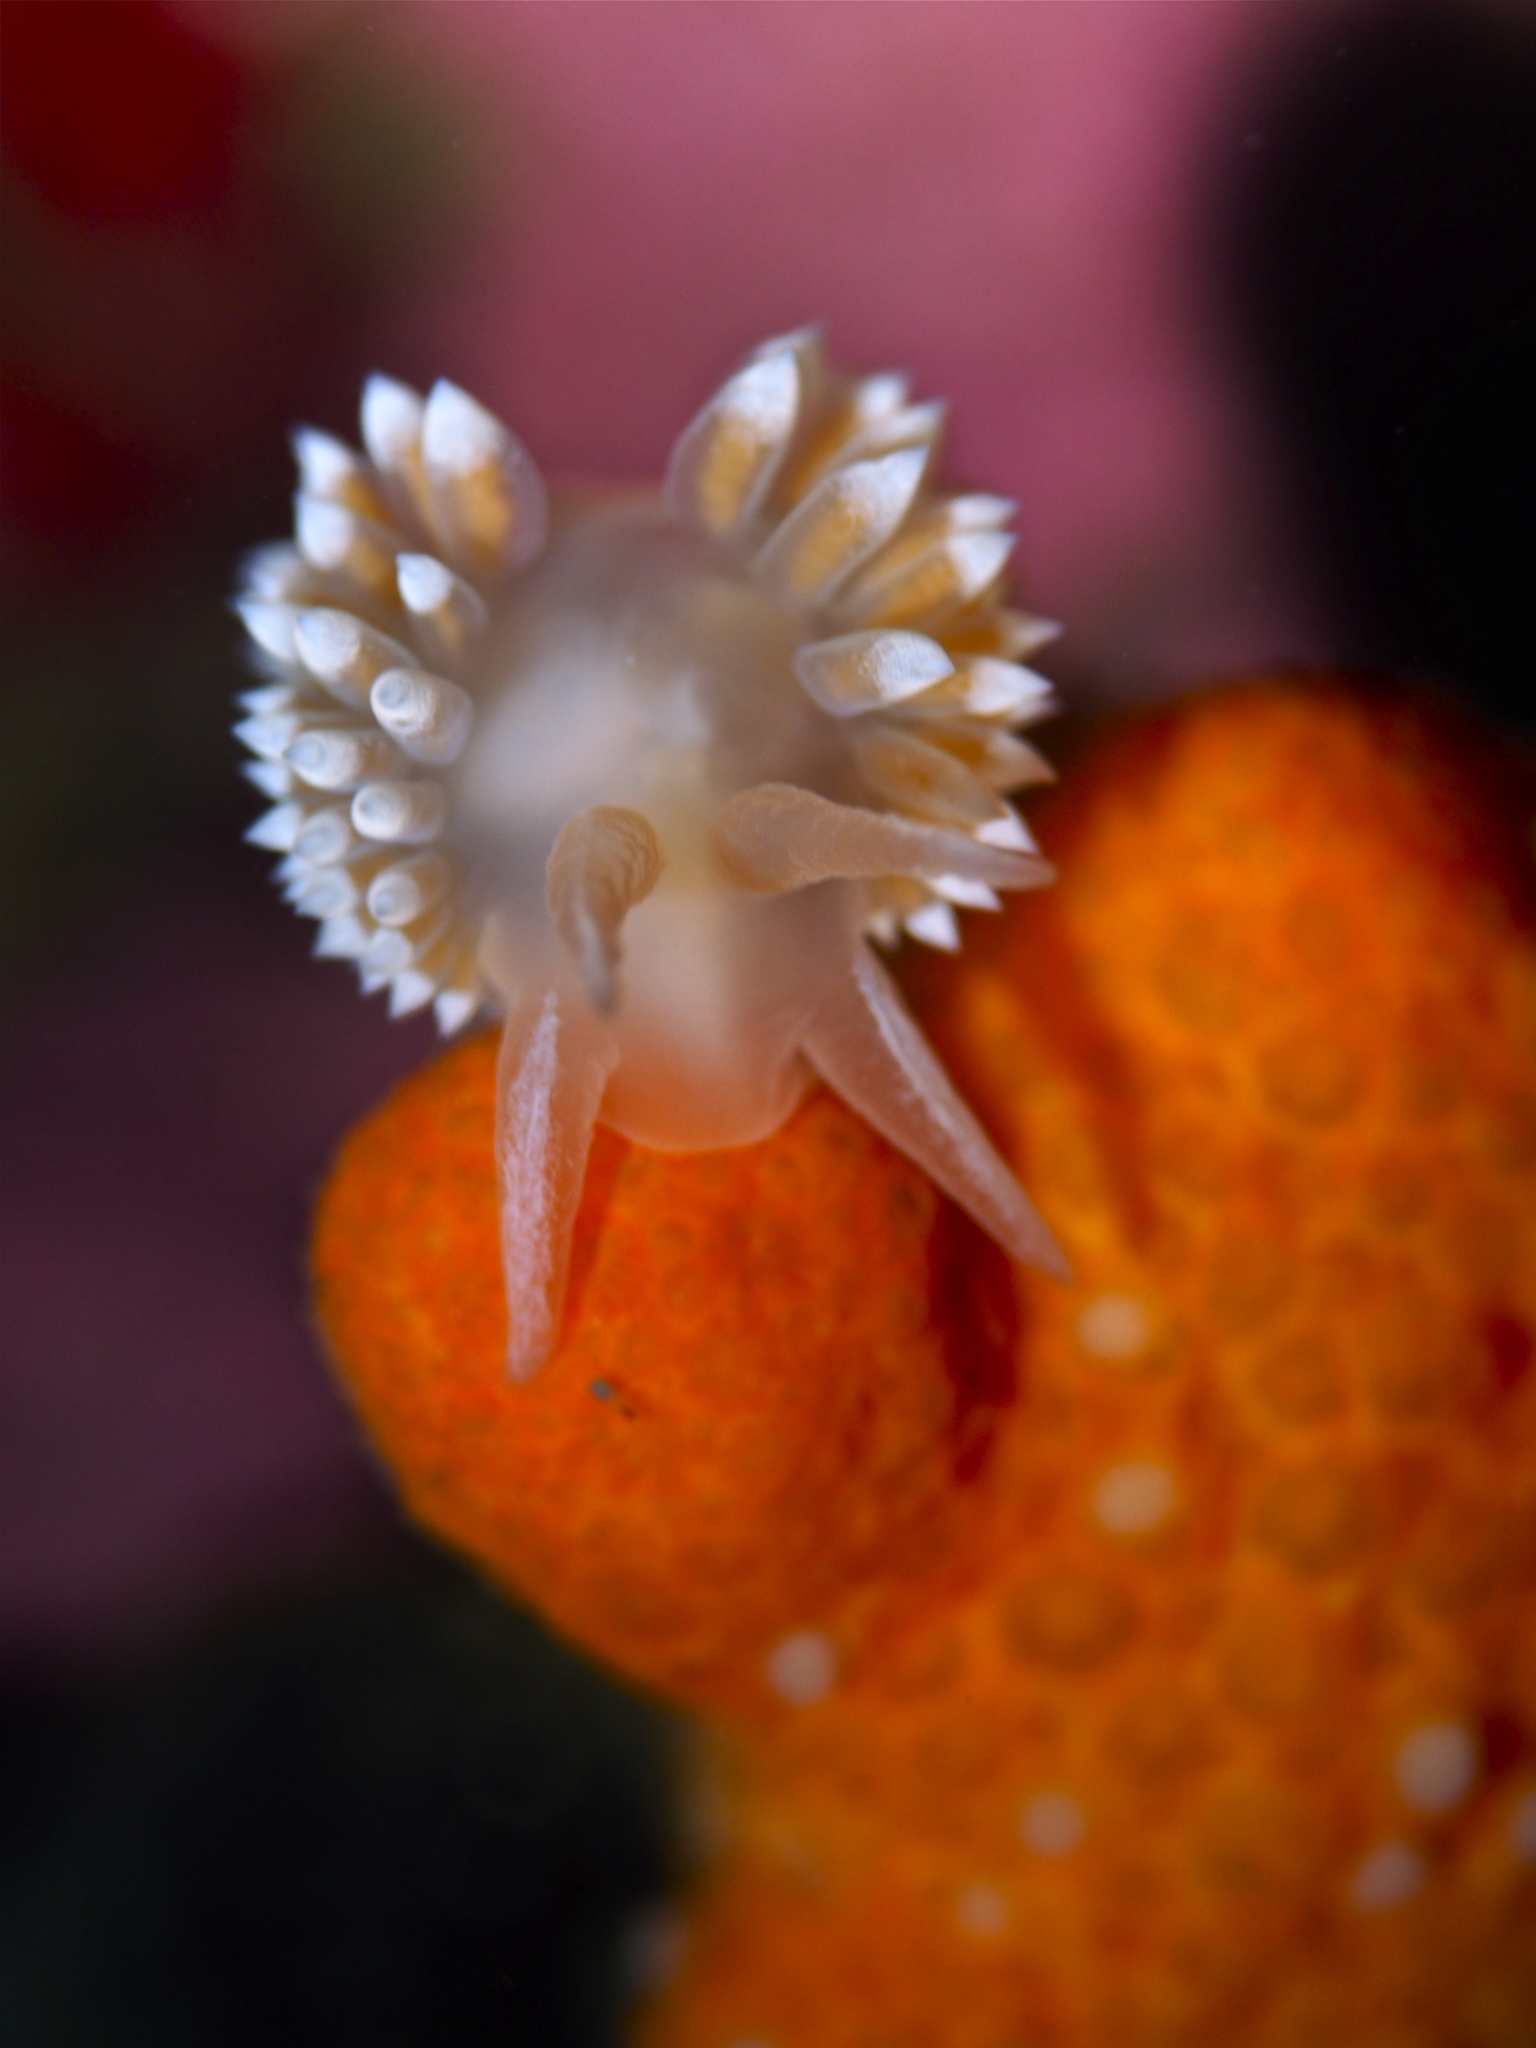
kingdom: Animalia
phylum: Mollusca
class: Gastropoda
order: Nudibranchia
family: Coryphellidae
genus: Coryphella
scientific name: Coryphella verrucosa
